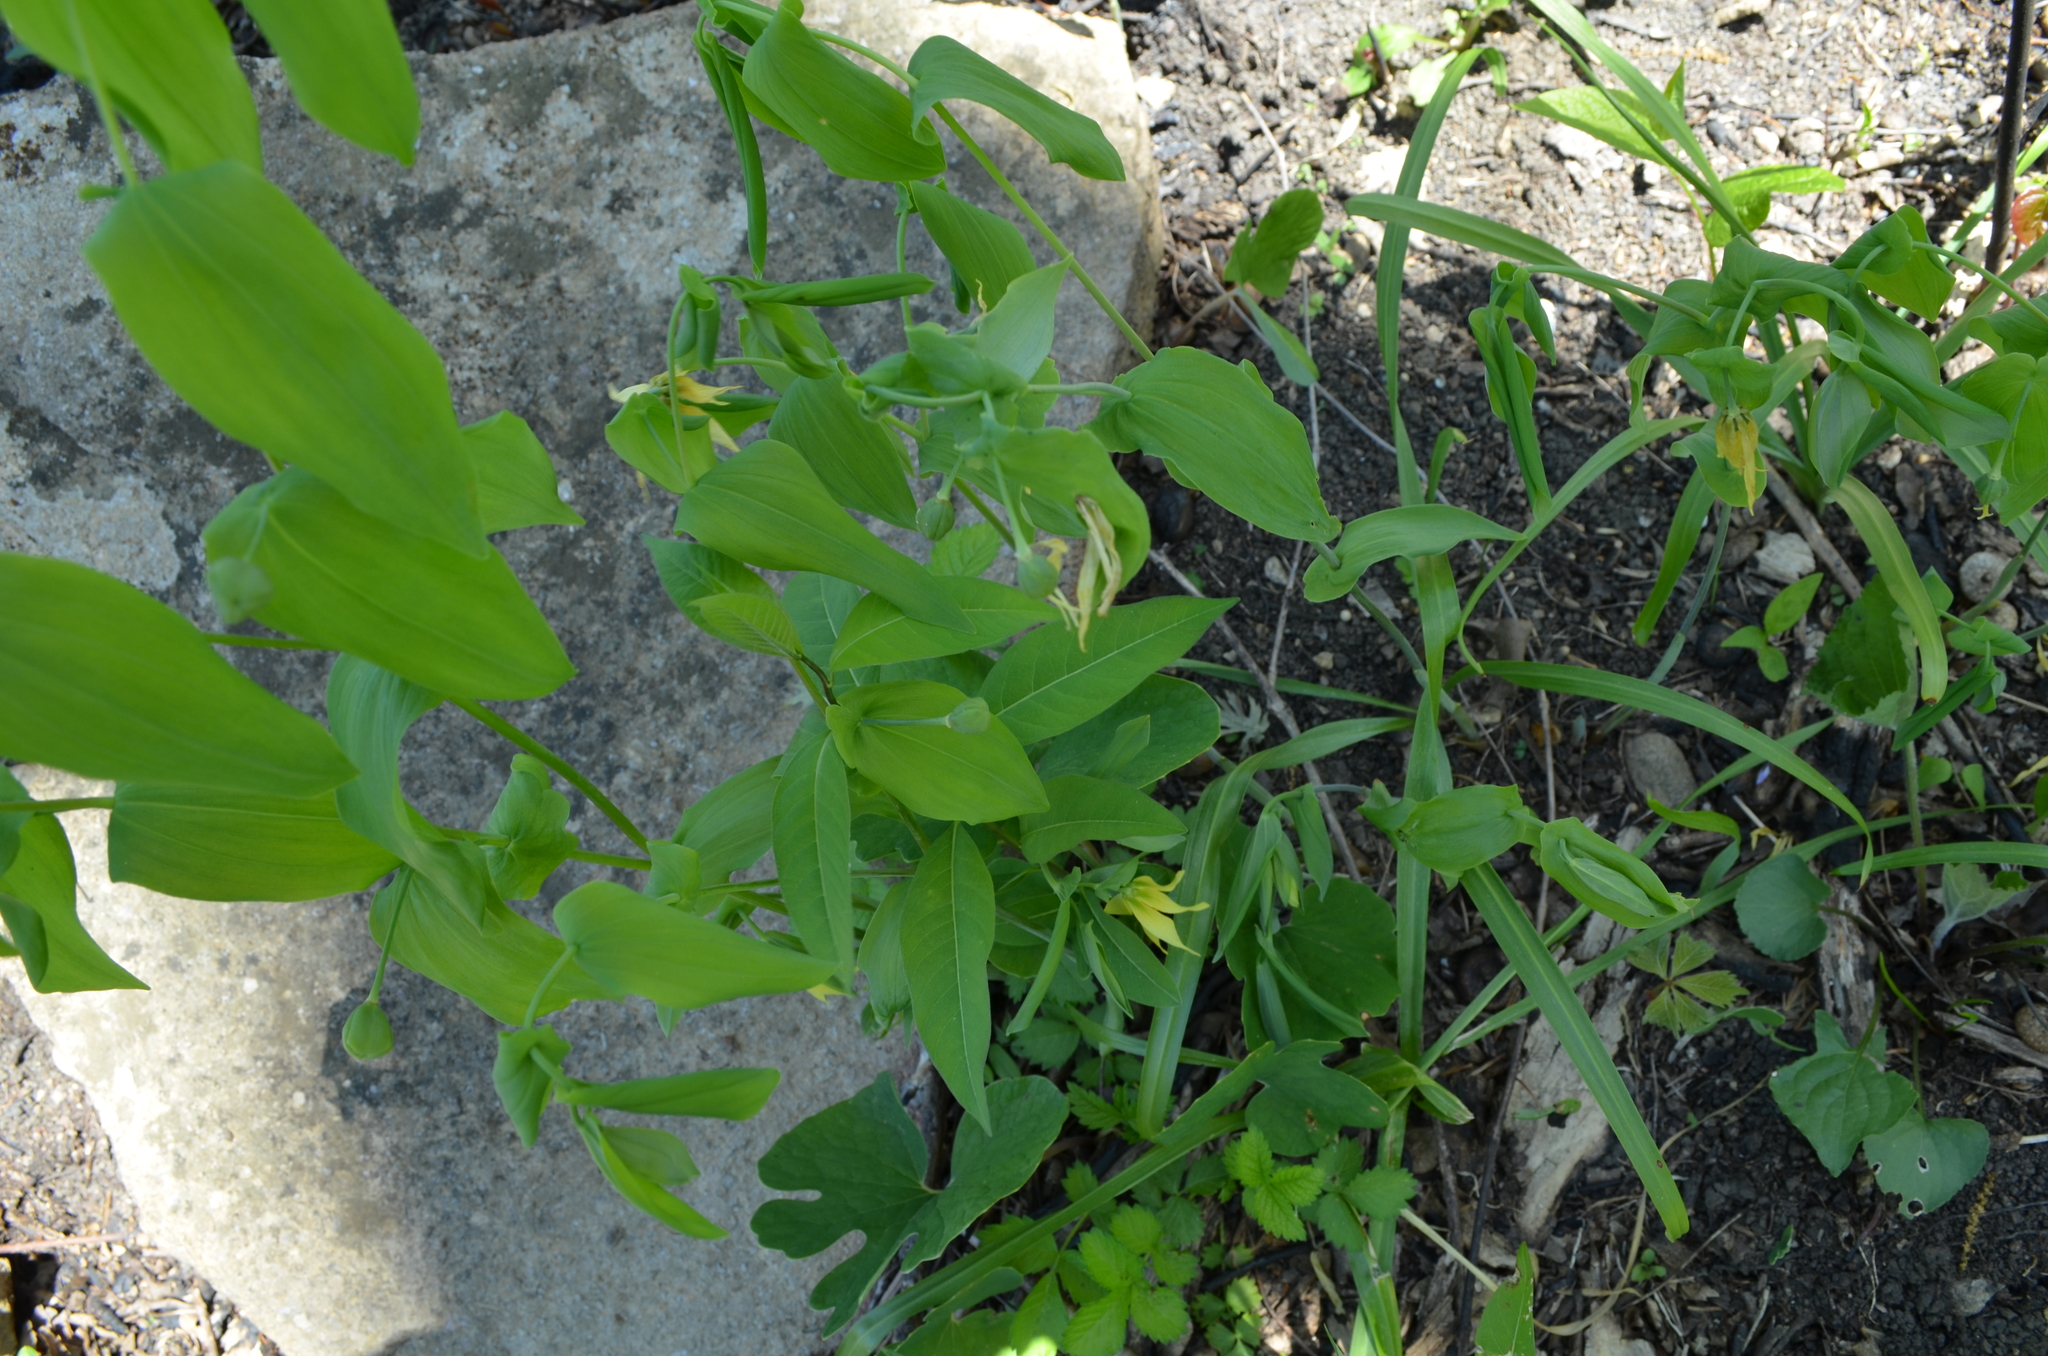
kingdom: Plantae
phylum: Tracheophyta
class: Liliopsida
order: Liliales
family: Colchicaceae
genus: Uvularia
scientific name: Uvularia grandiflora
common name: Bellwort
